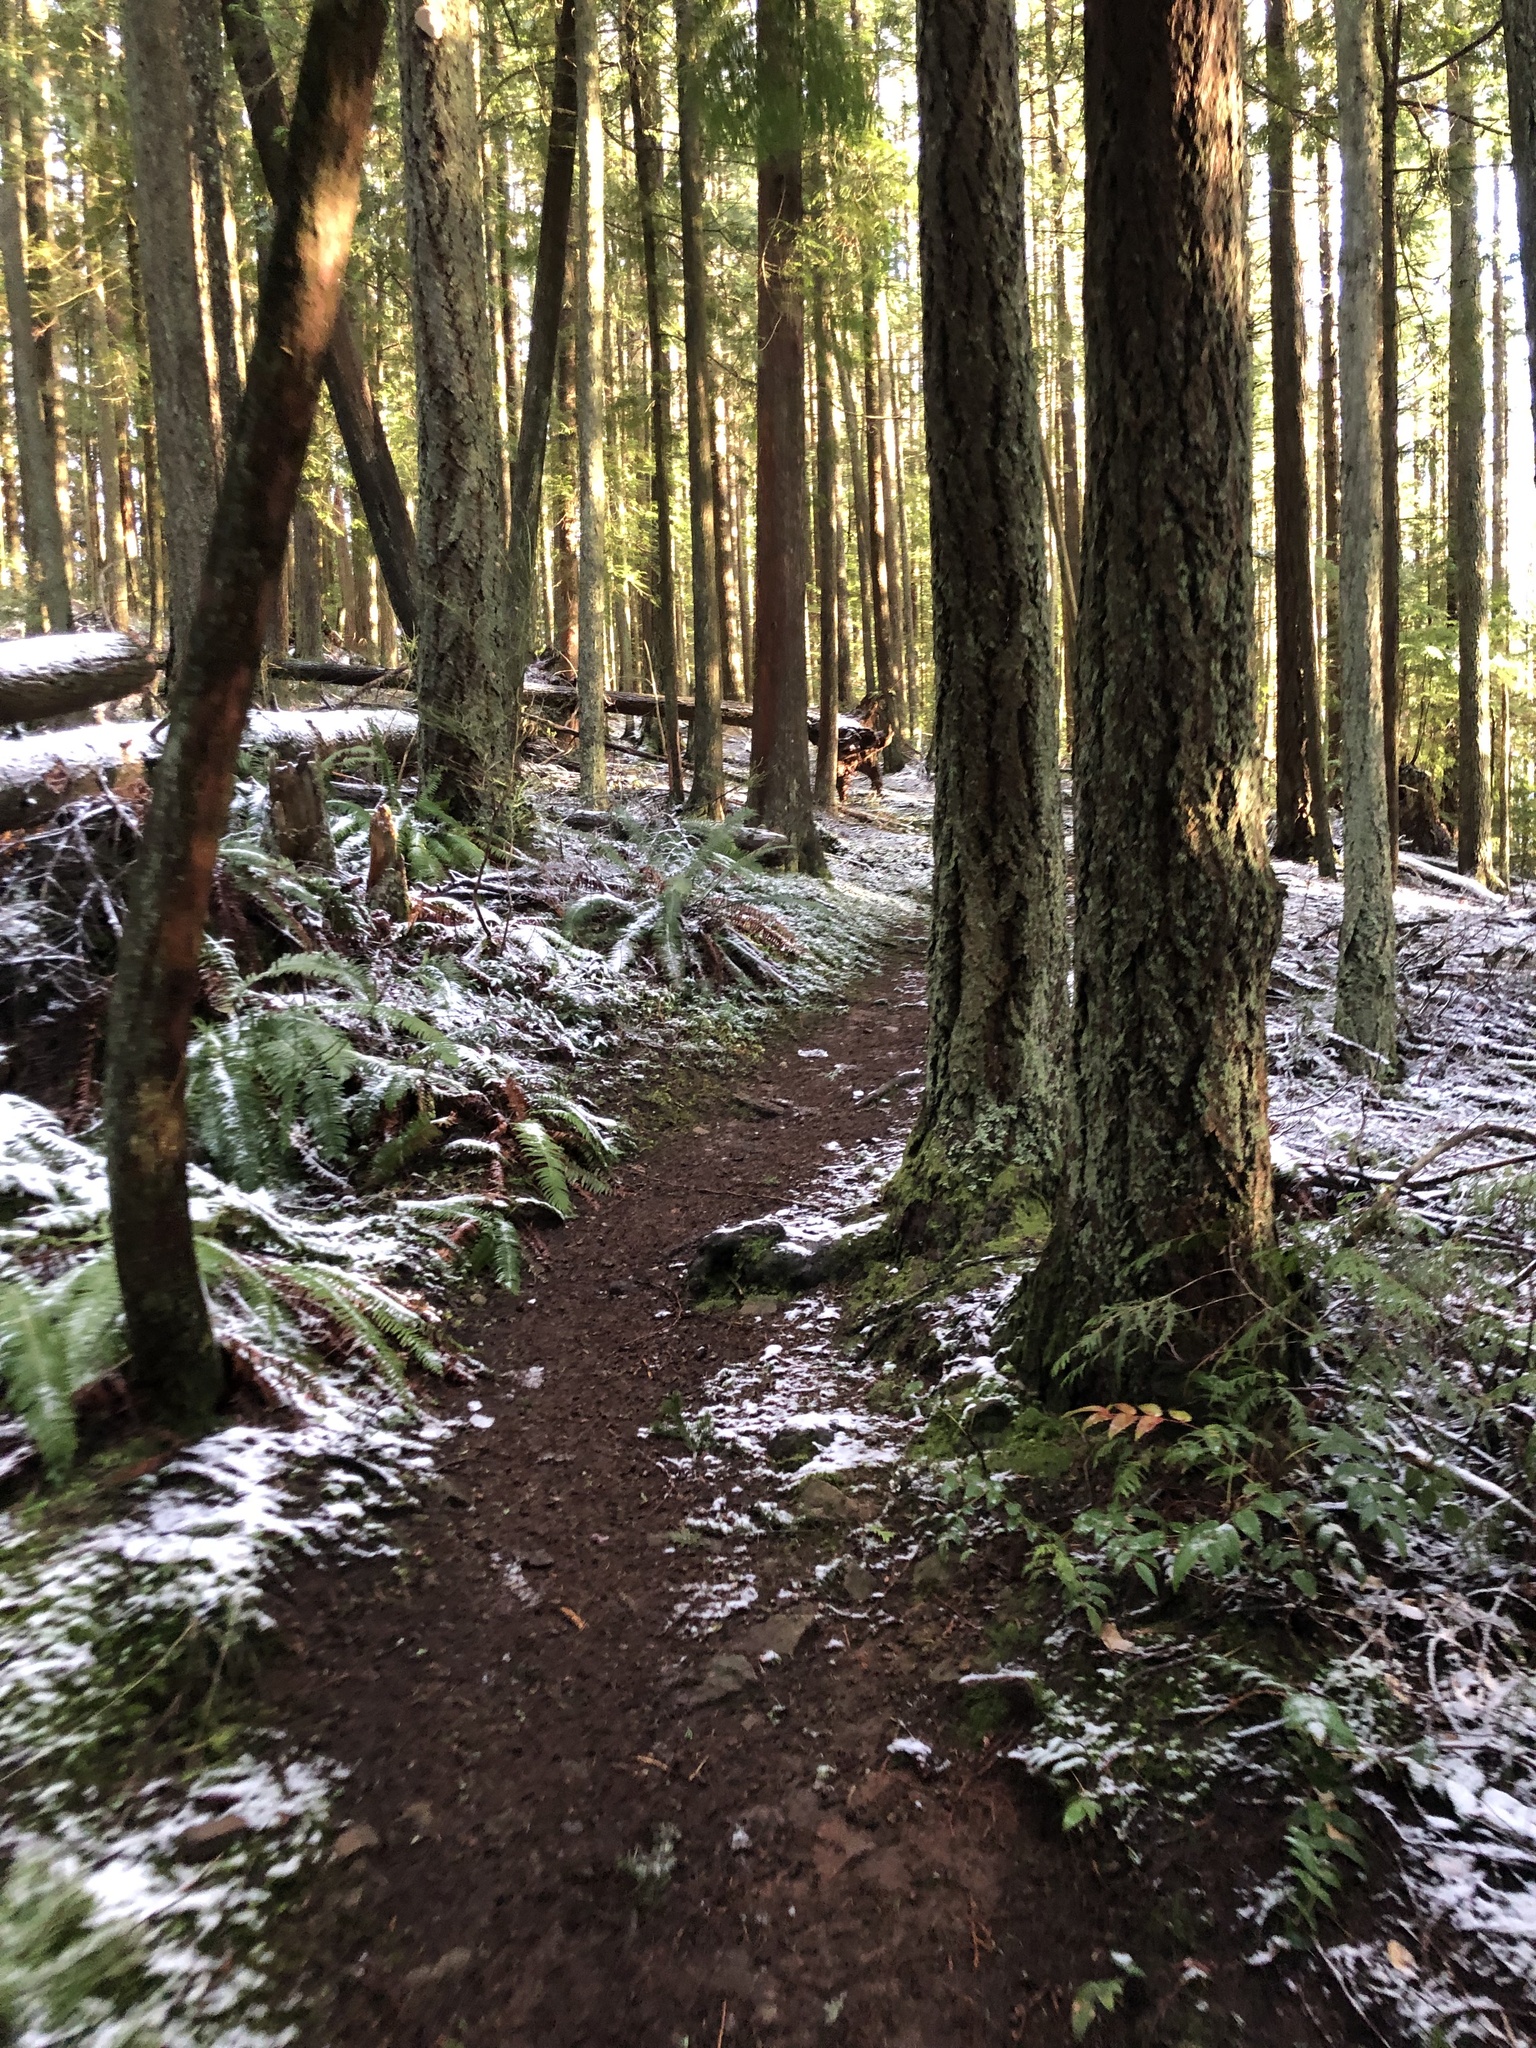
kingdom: Plantae
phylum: Tracheophyta
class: Pinopsida
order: Pinales
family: Pinaceae
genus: Pseudotsuga
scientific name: Pseudotsuga menziesii
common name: Douglas fir
